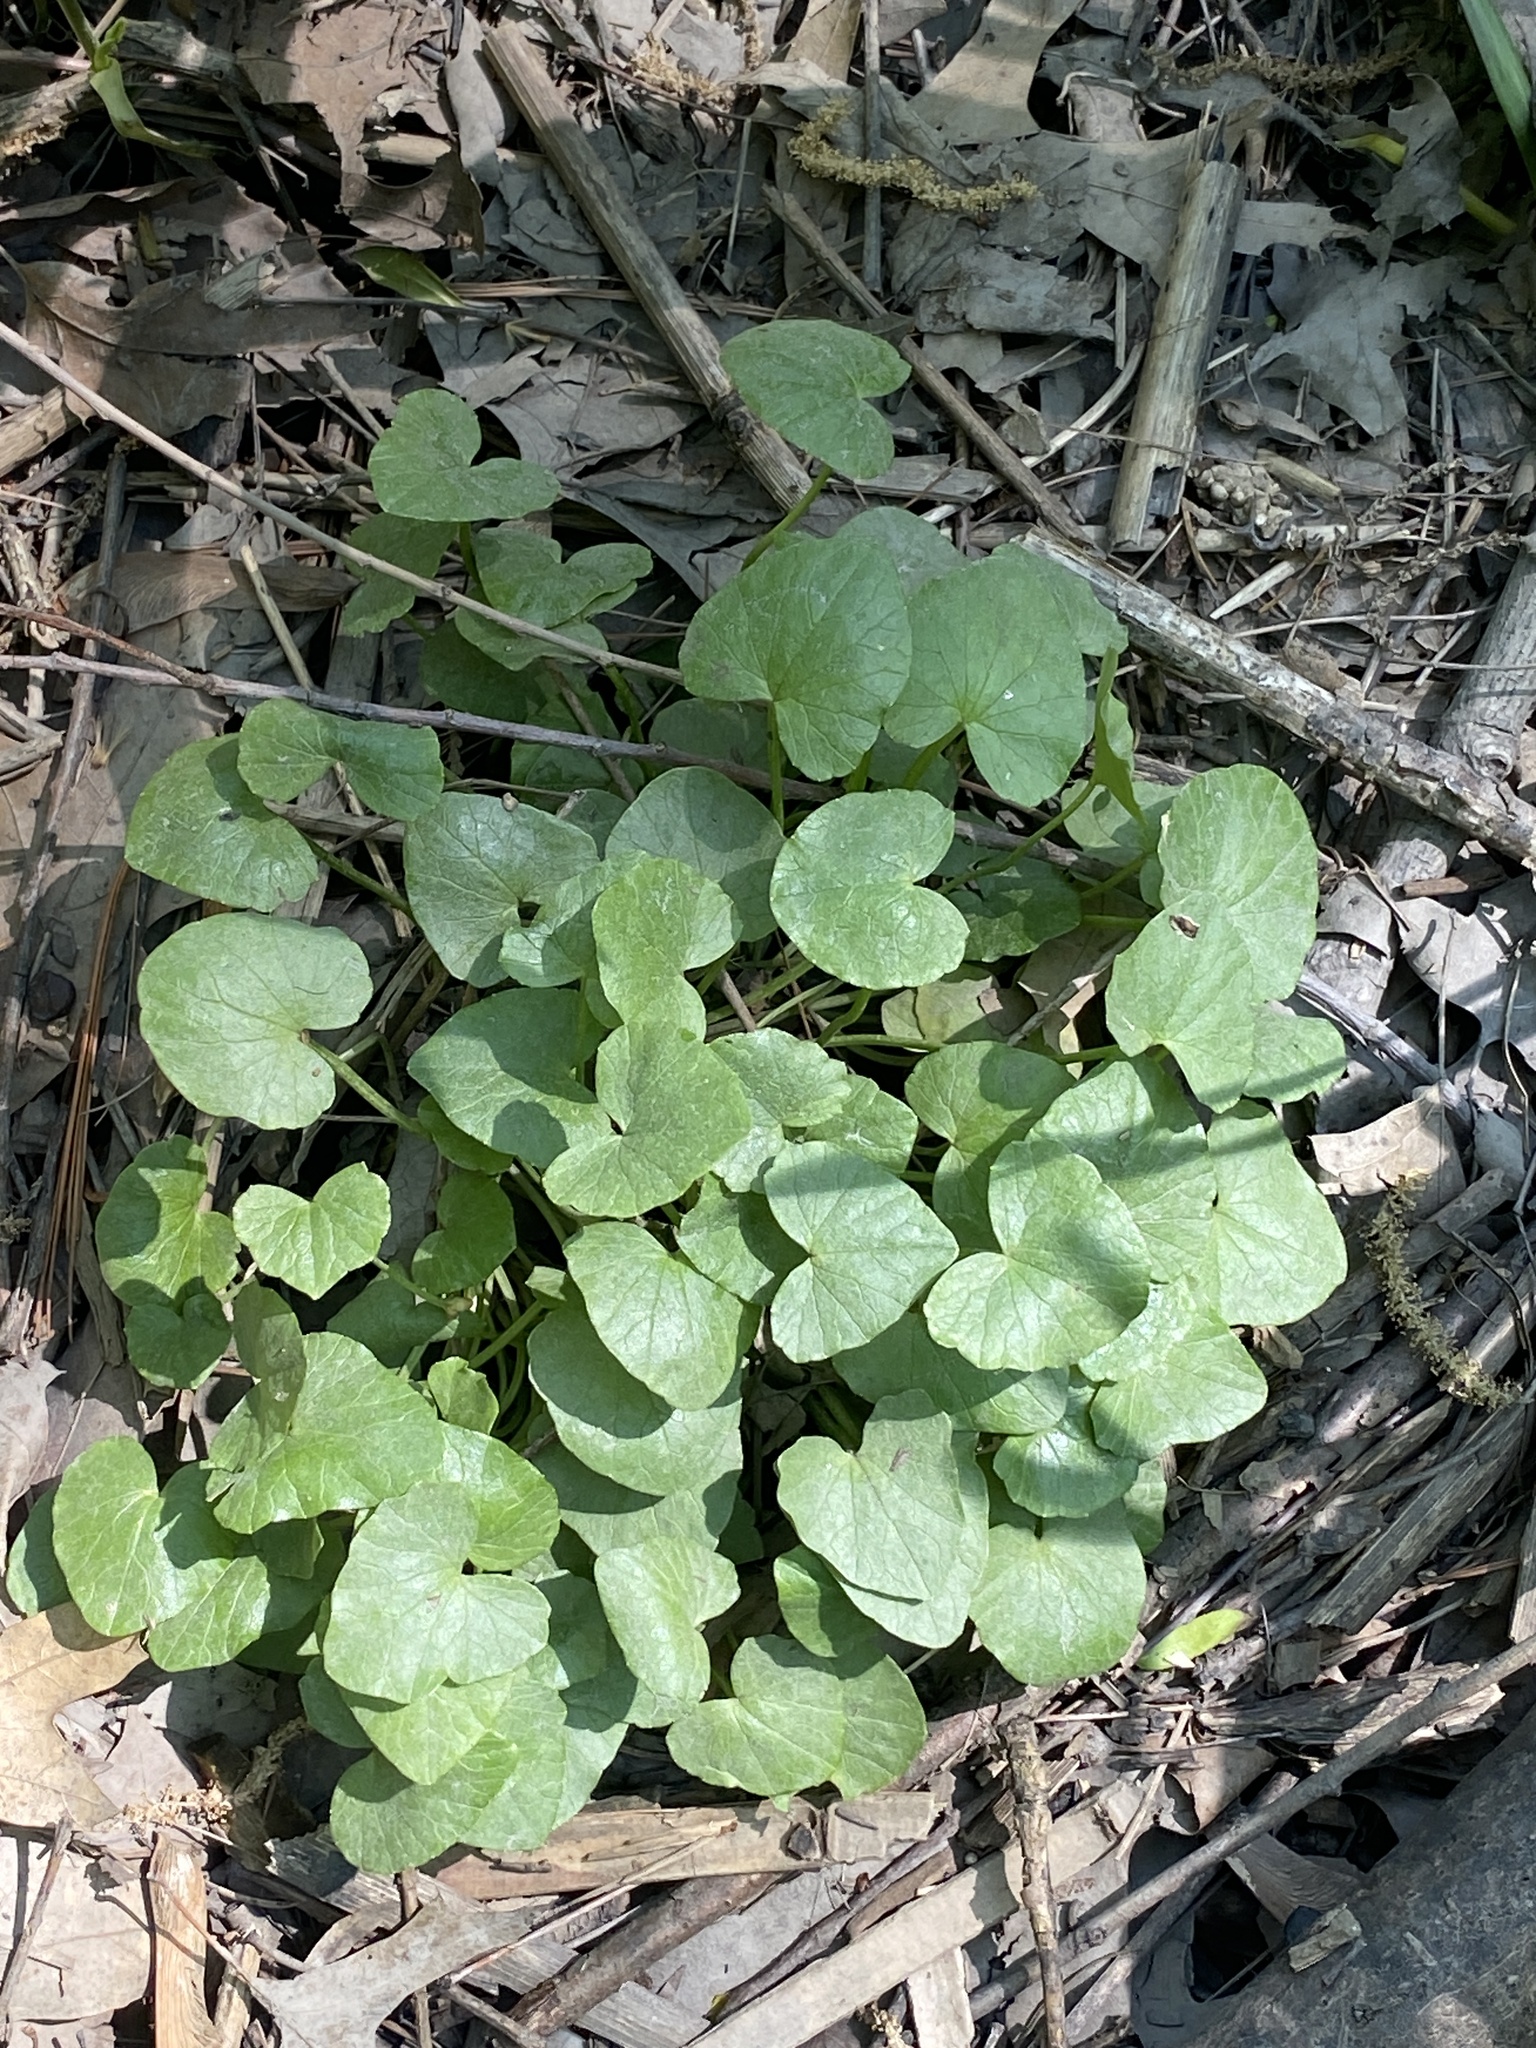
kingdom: Plantae
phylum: Tracheophyta
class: Magnoliopsida
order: Ranunculales
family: Ranunculaceae
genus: Ficaria
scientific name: Ficaria verna
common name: Lesser celandine
